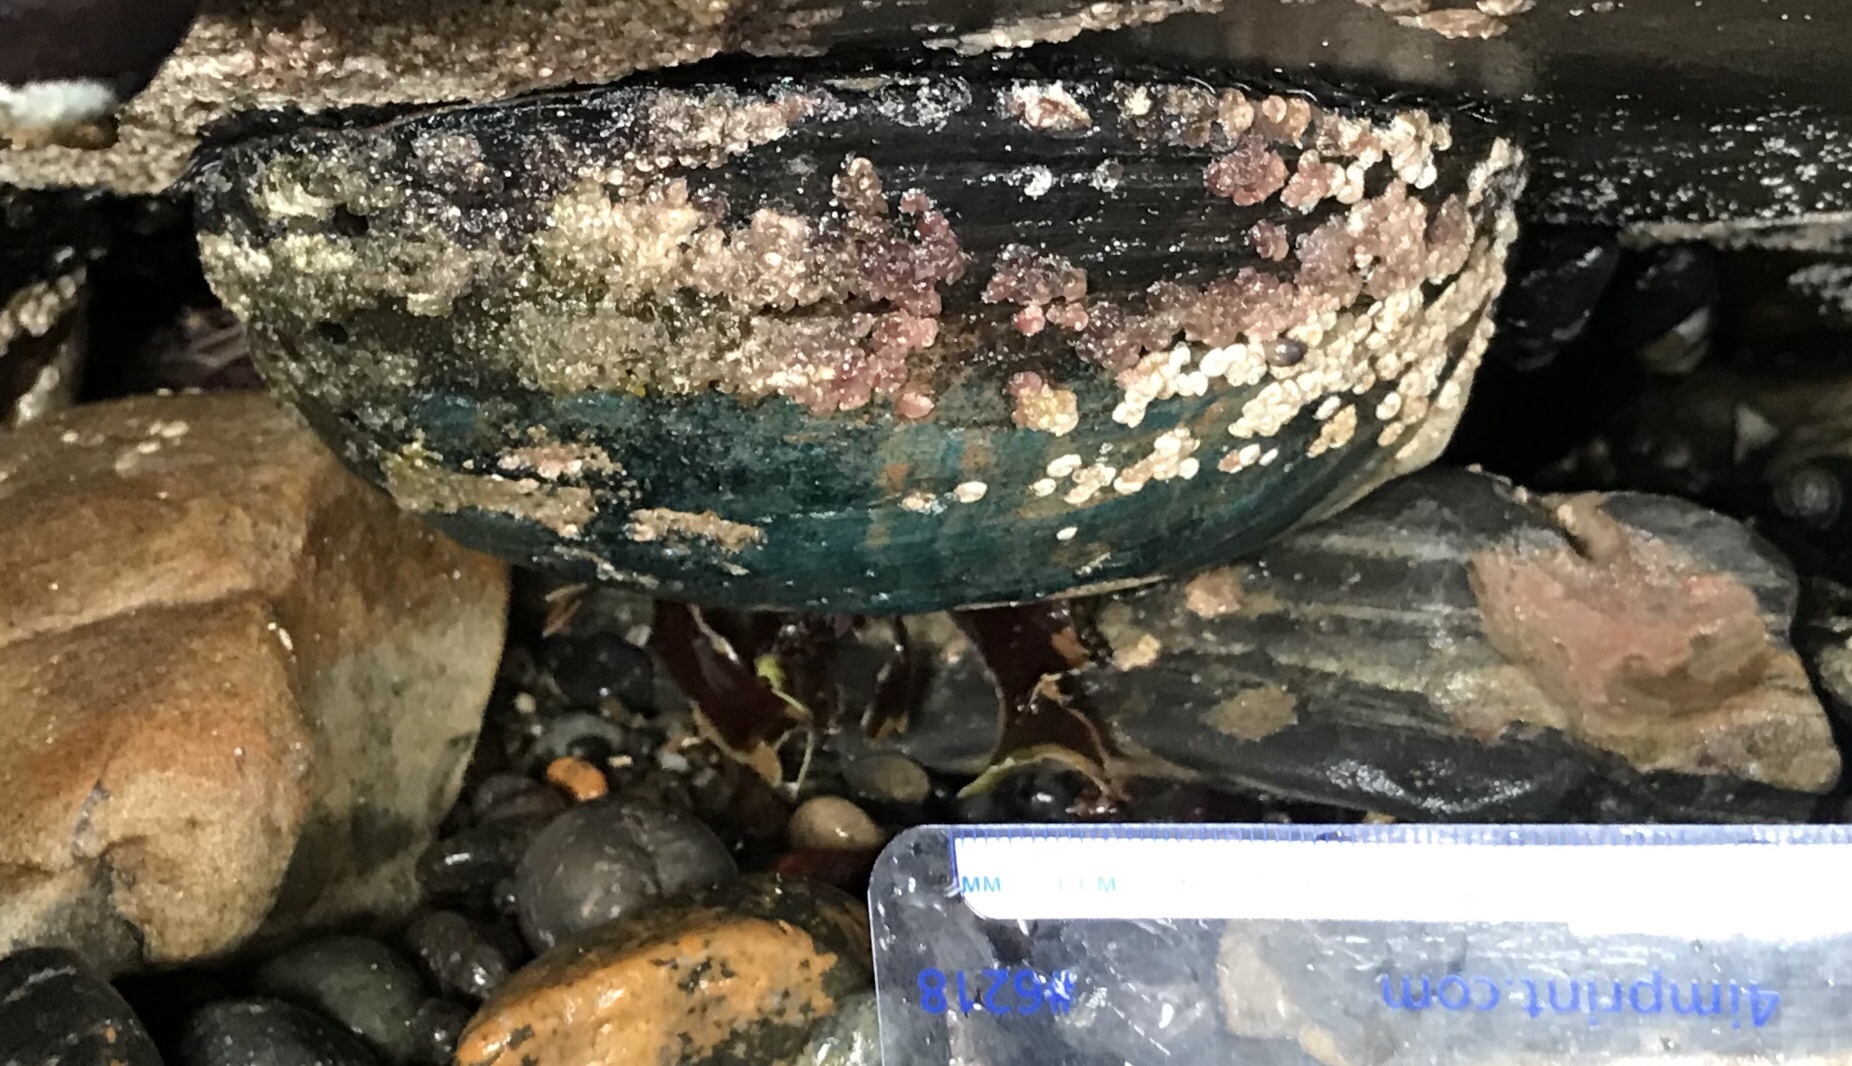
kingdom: Animalia
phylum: Mollusca
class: Gastropoda
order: Lepetellida
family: Haliotidae
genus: Haliotis
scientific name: Haliotis cracherodii
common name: Black abalone
